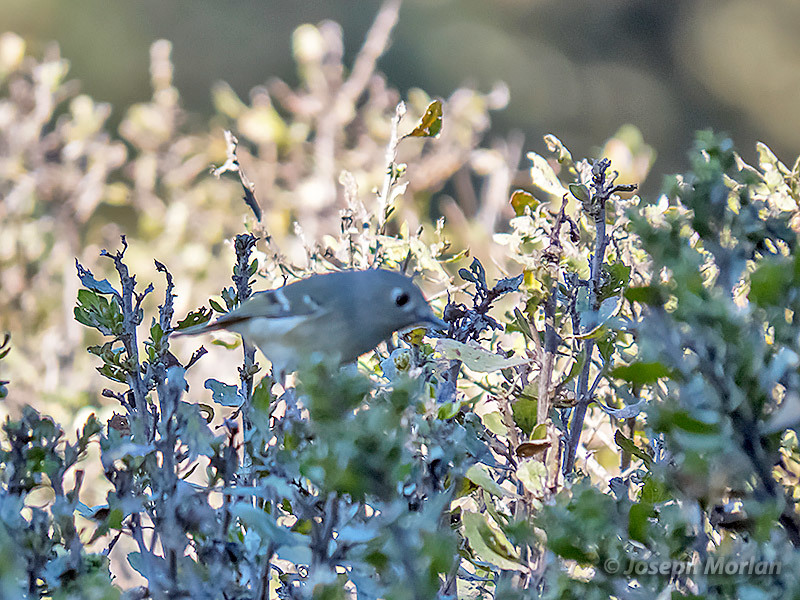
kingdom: Animalia
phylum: Chordata
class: Aves
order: Passeriformes
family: Regulidae
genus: Regulus
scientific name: Regulus calendula
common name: Ruby-crowned kinglet
